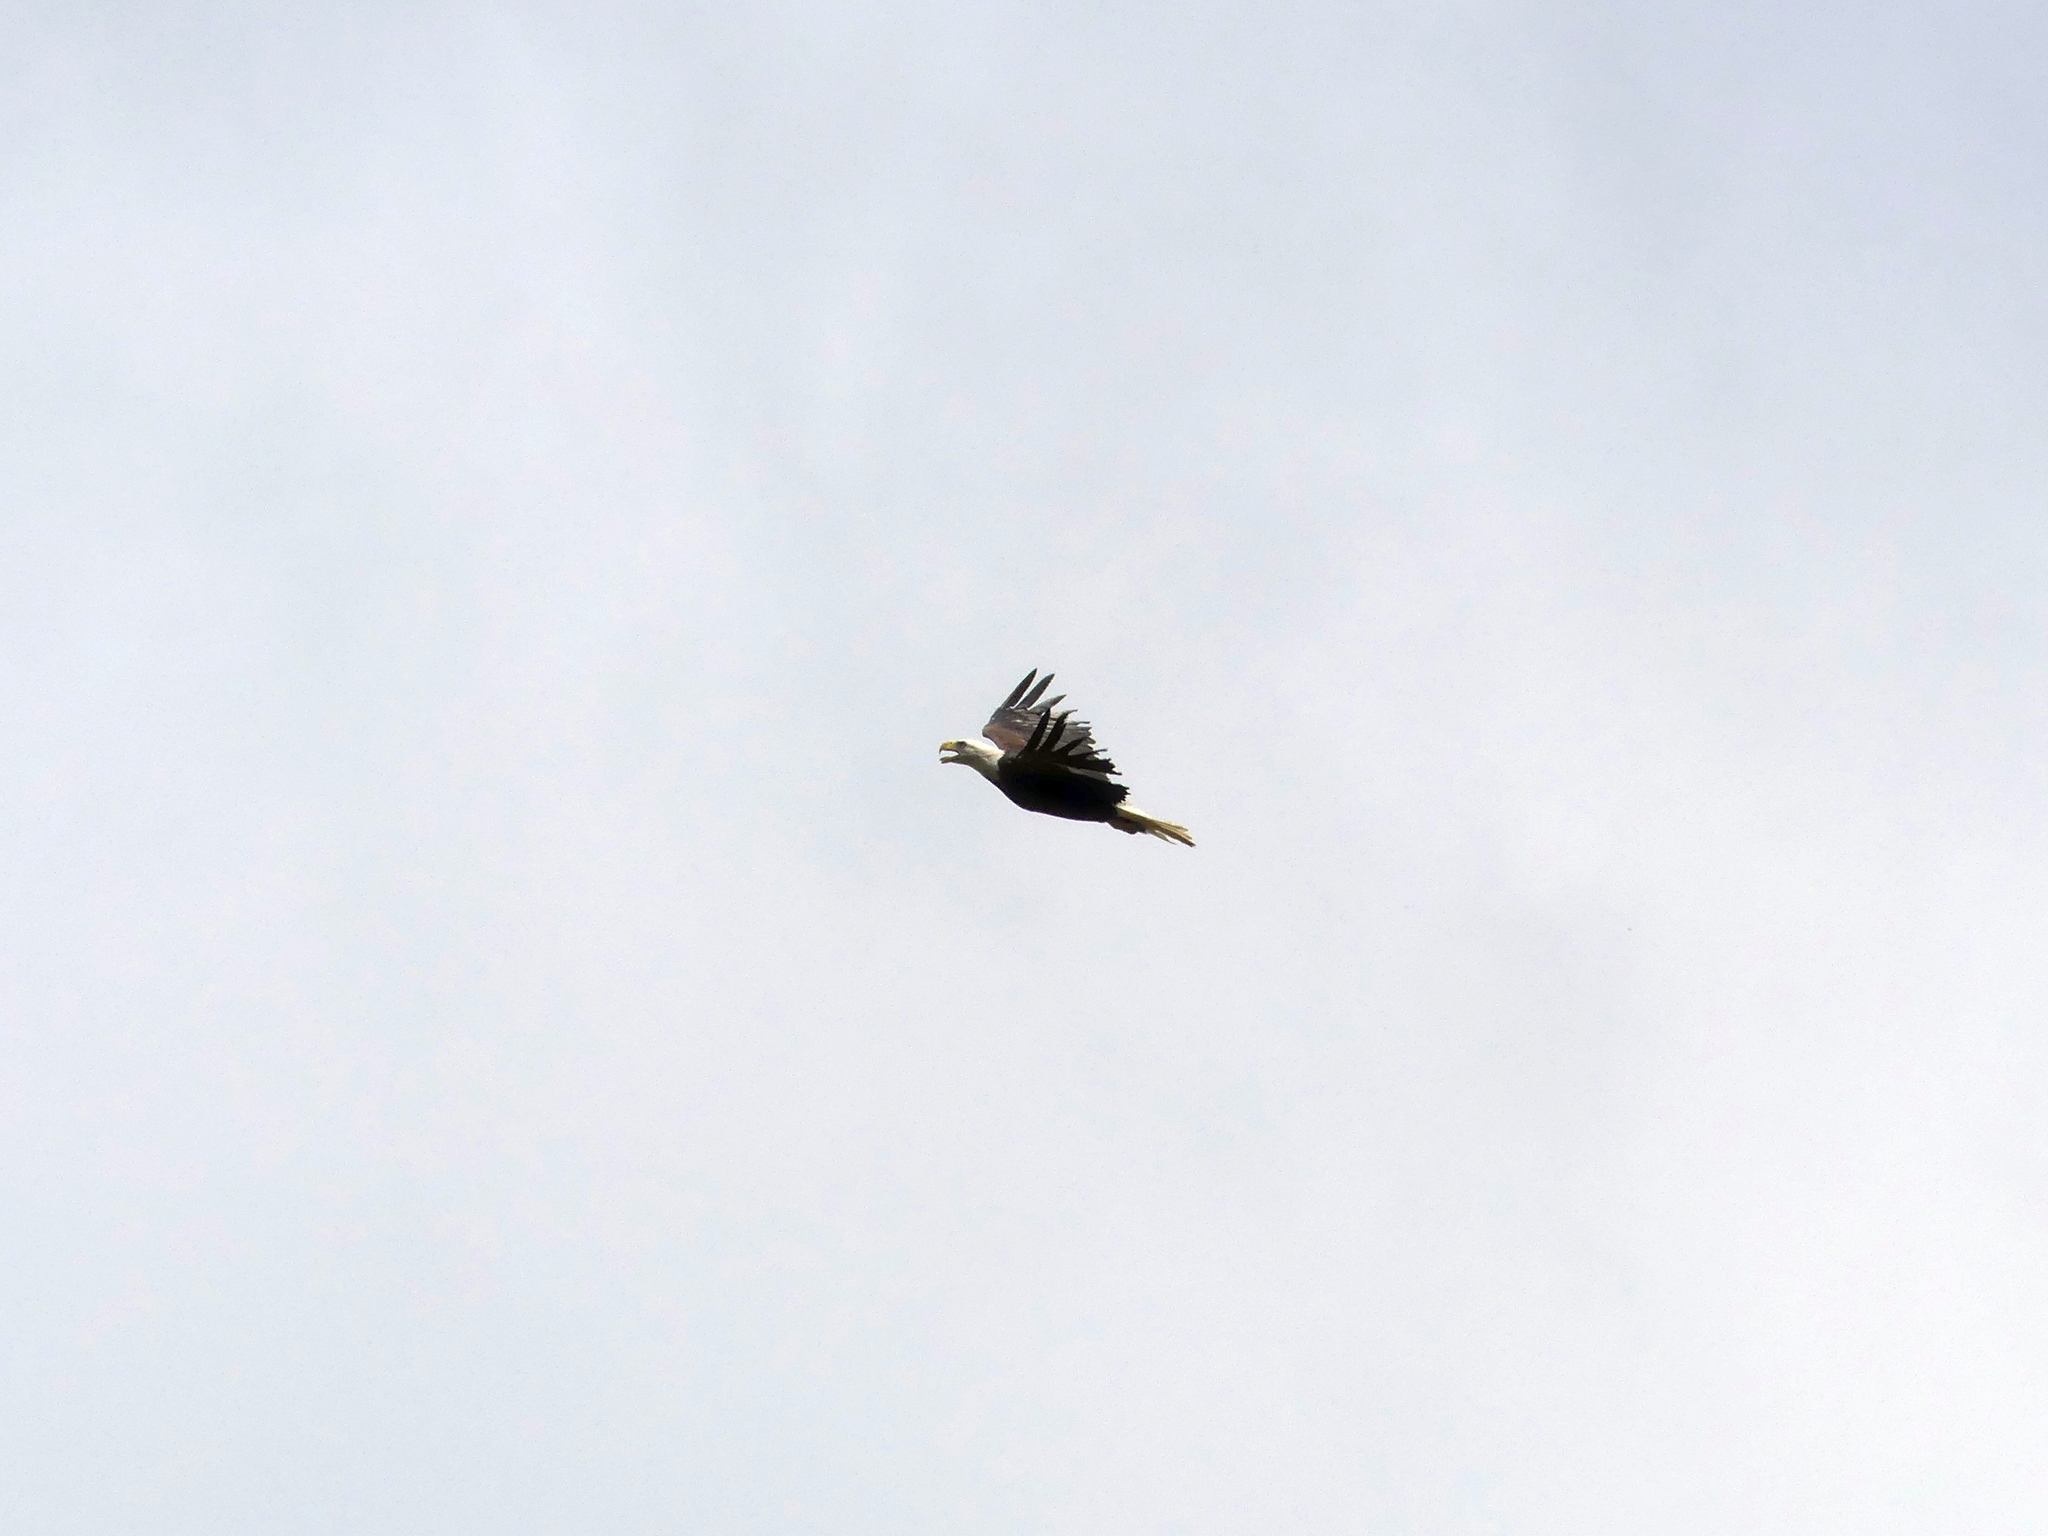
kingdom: Animalia
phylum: Chordata
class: Aves
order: Accipitriformes
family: Accipitridae
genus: Haliaeetus
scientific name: Haliaeetus leucocephalus
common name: Bald eagle
